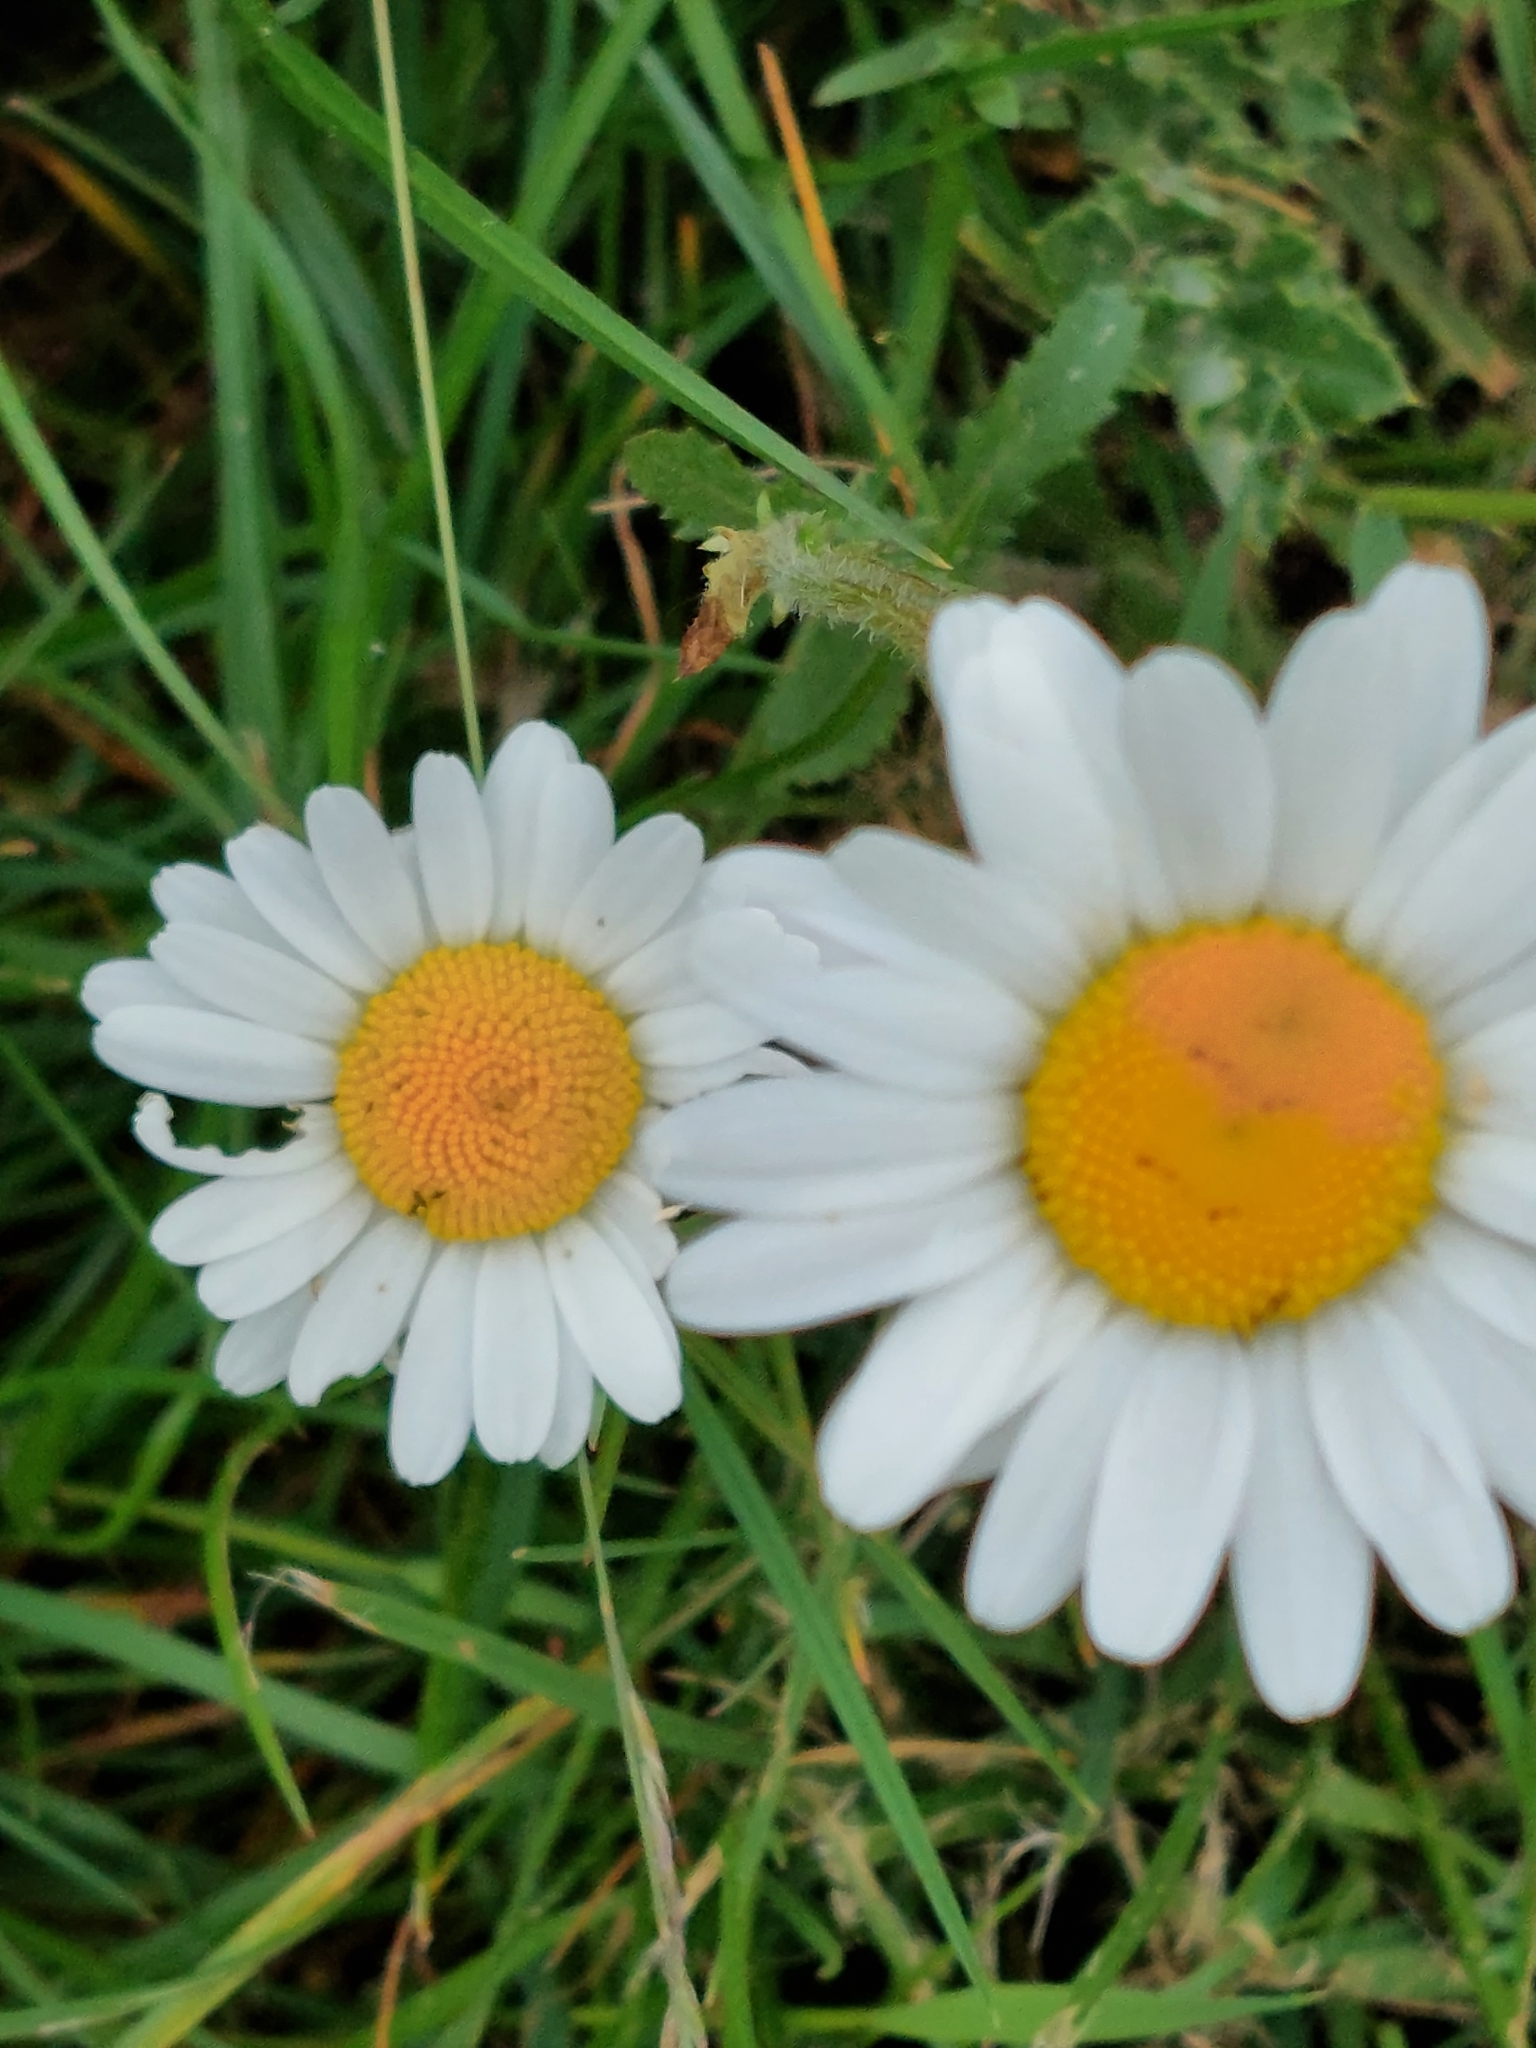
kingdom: Plantae
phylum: Tracheophyta
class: Magnoliopsida
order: Asterales
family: Asteraceae
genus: Leucanthemum
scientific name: Leucanthemum vulgare
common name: Oxeye daisy
